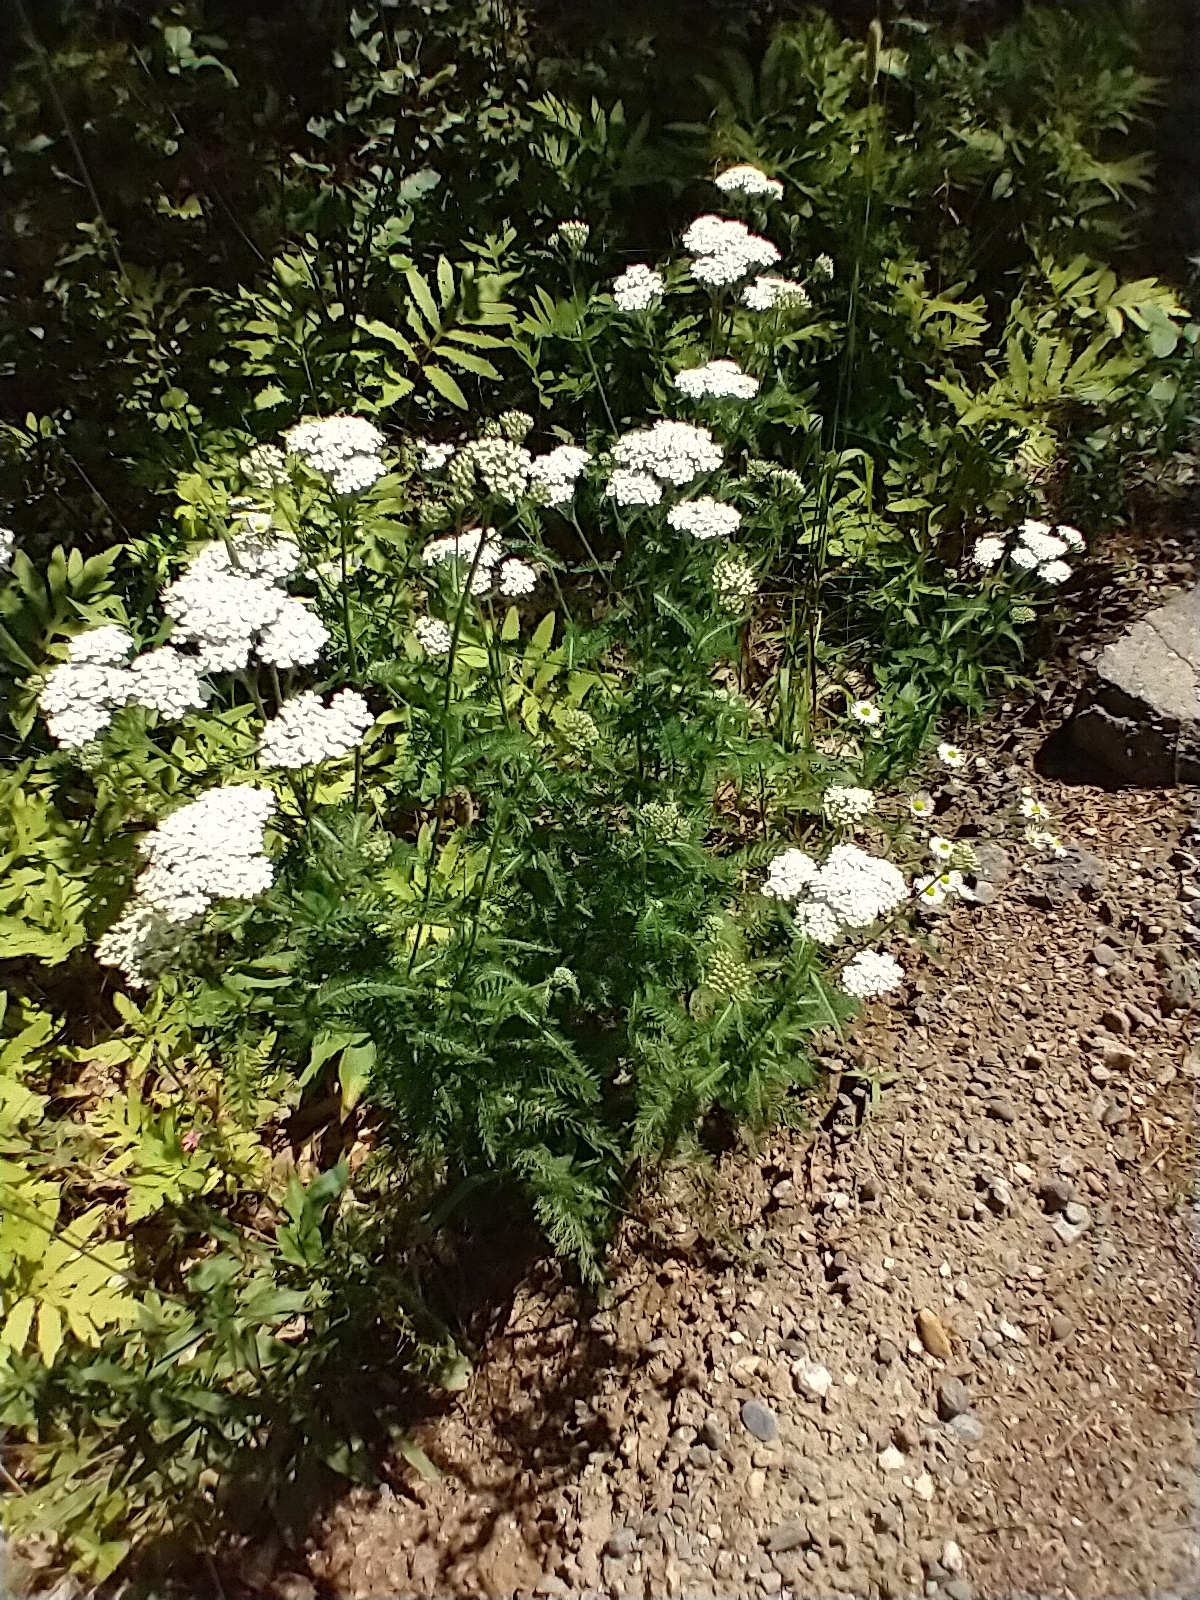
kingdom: Plantae
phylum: Tracheophyta
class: Magnoliopsida
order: Asterales
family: Asteraceae
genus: Achillea
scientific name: Achillea millefolium
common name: Yarrow
